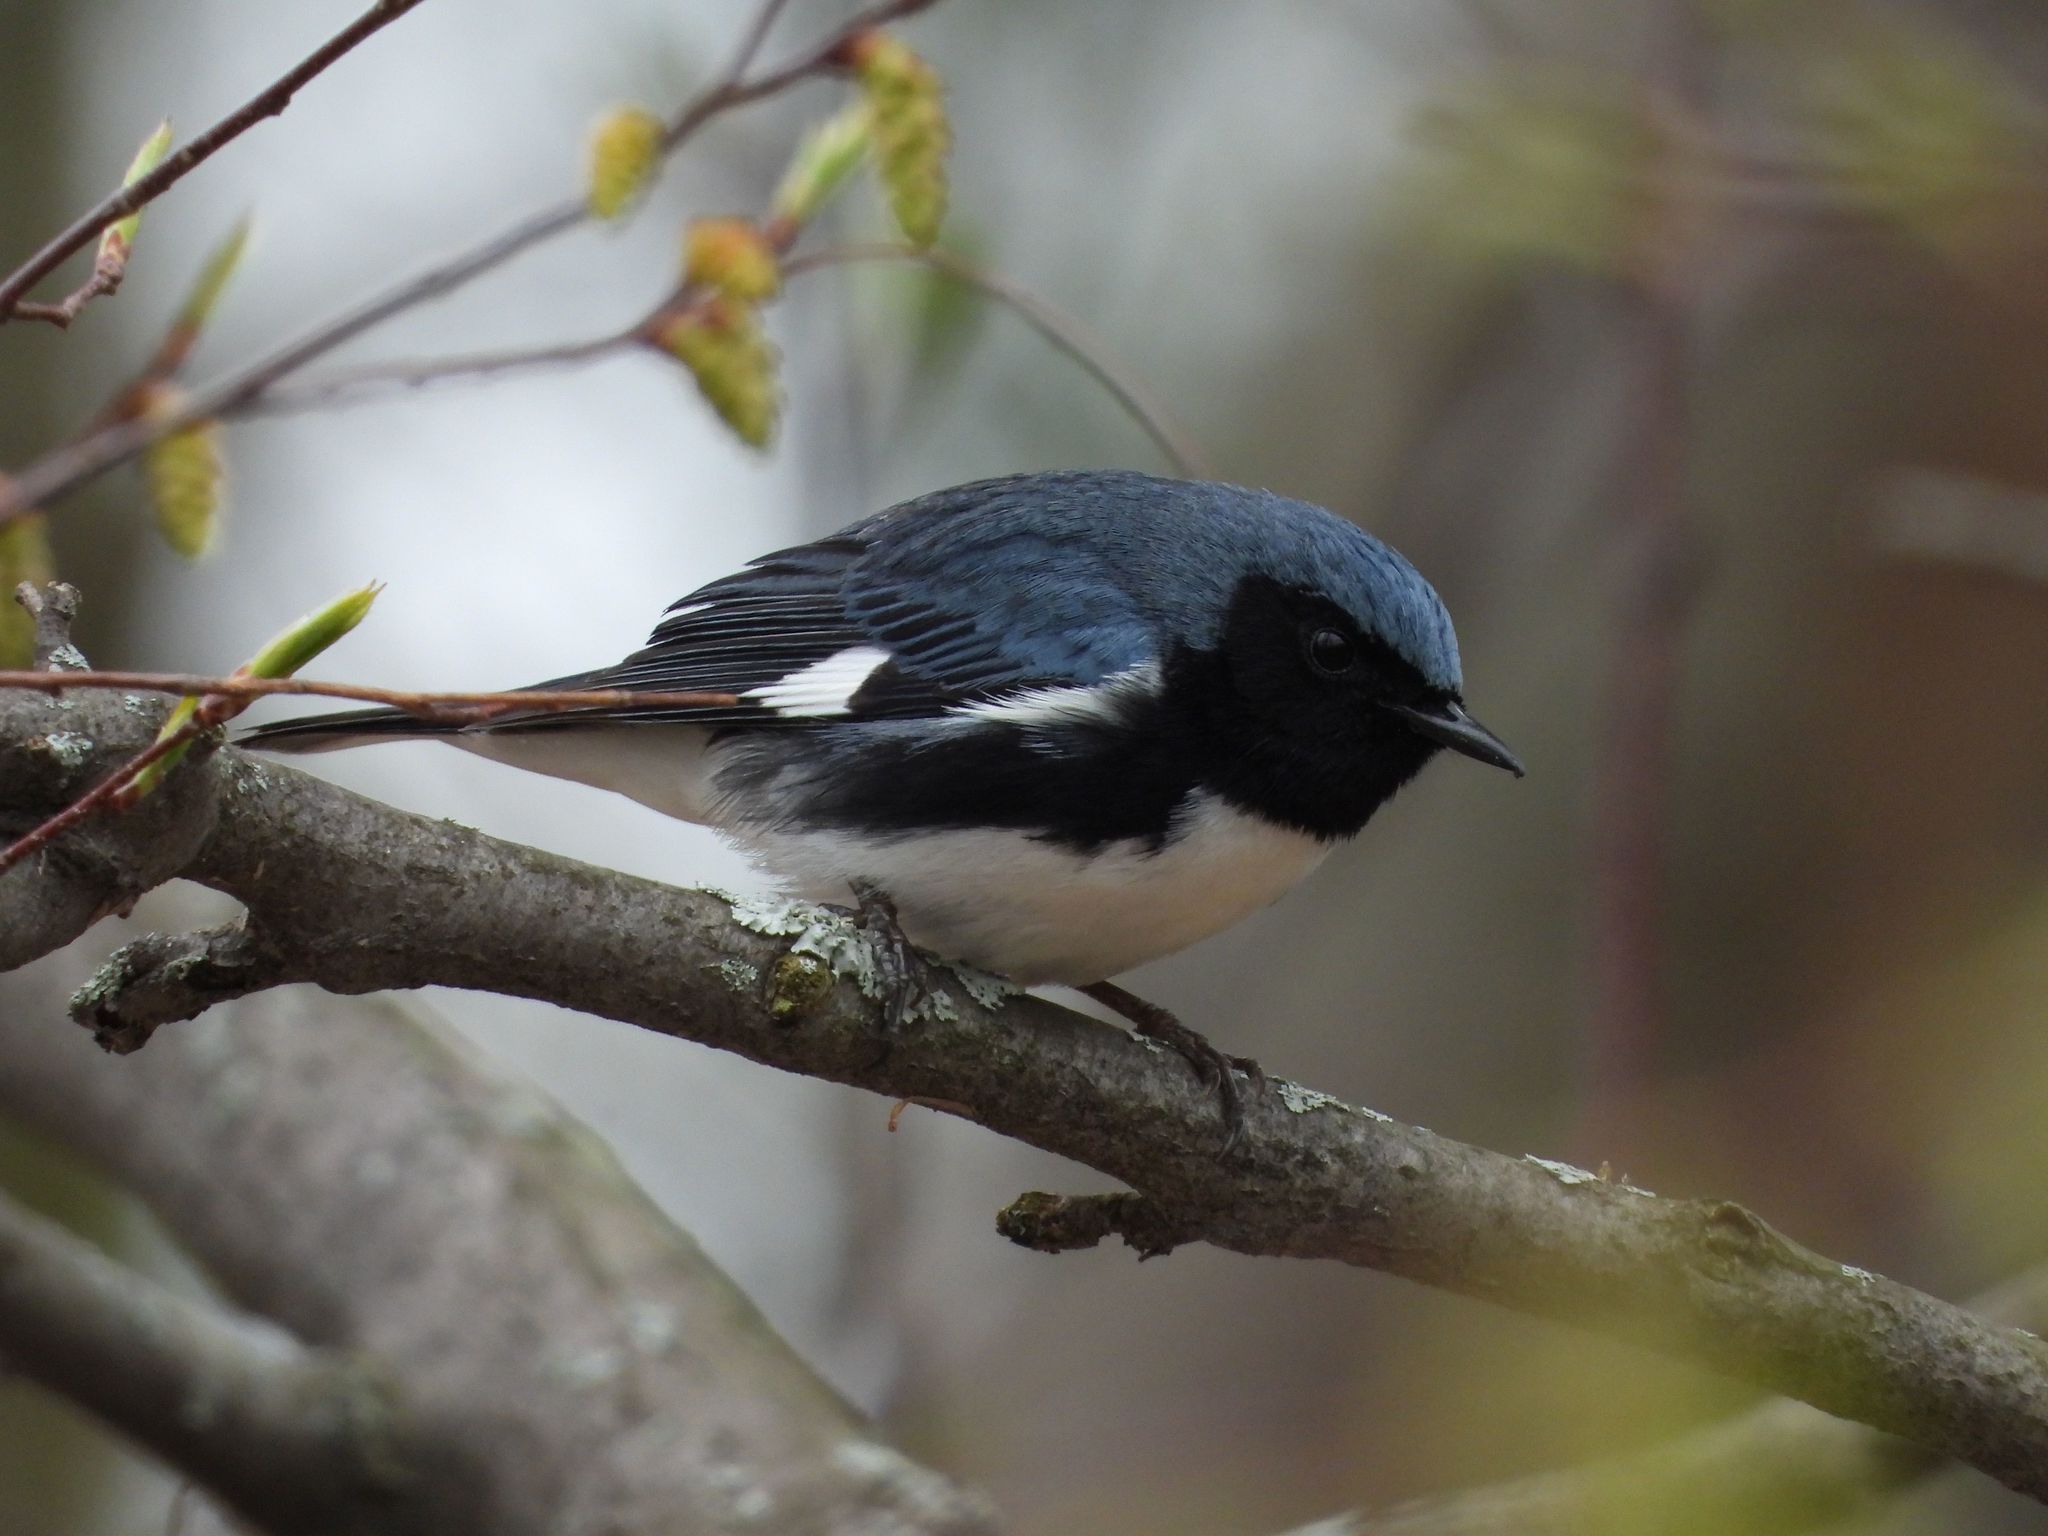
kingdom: Animalia
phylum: Chordata
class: Aves
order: Passeriformes
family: Parulidae
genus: Setophaga
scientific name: Setophaga caerulescens
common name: Black-throated blue warbler
